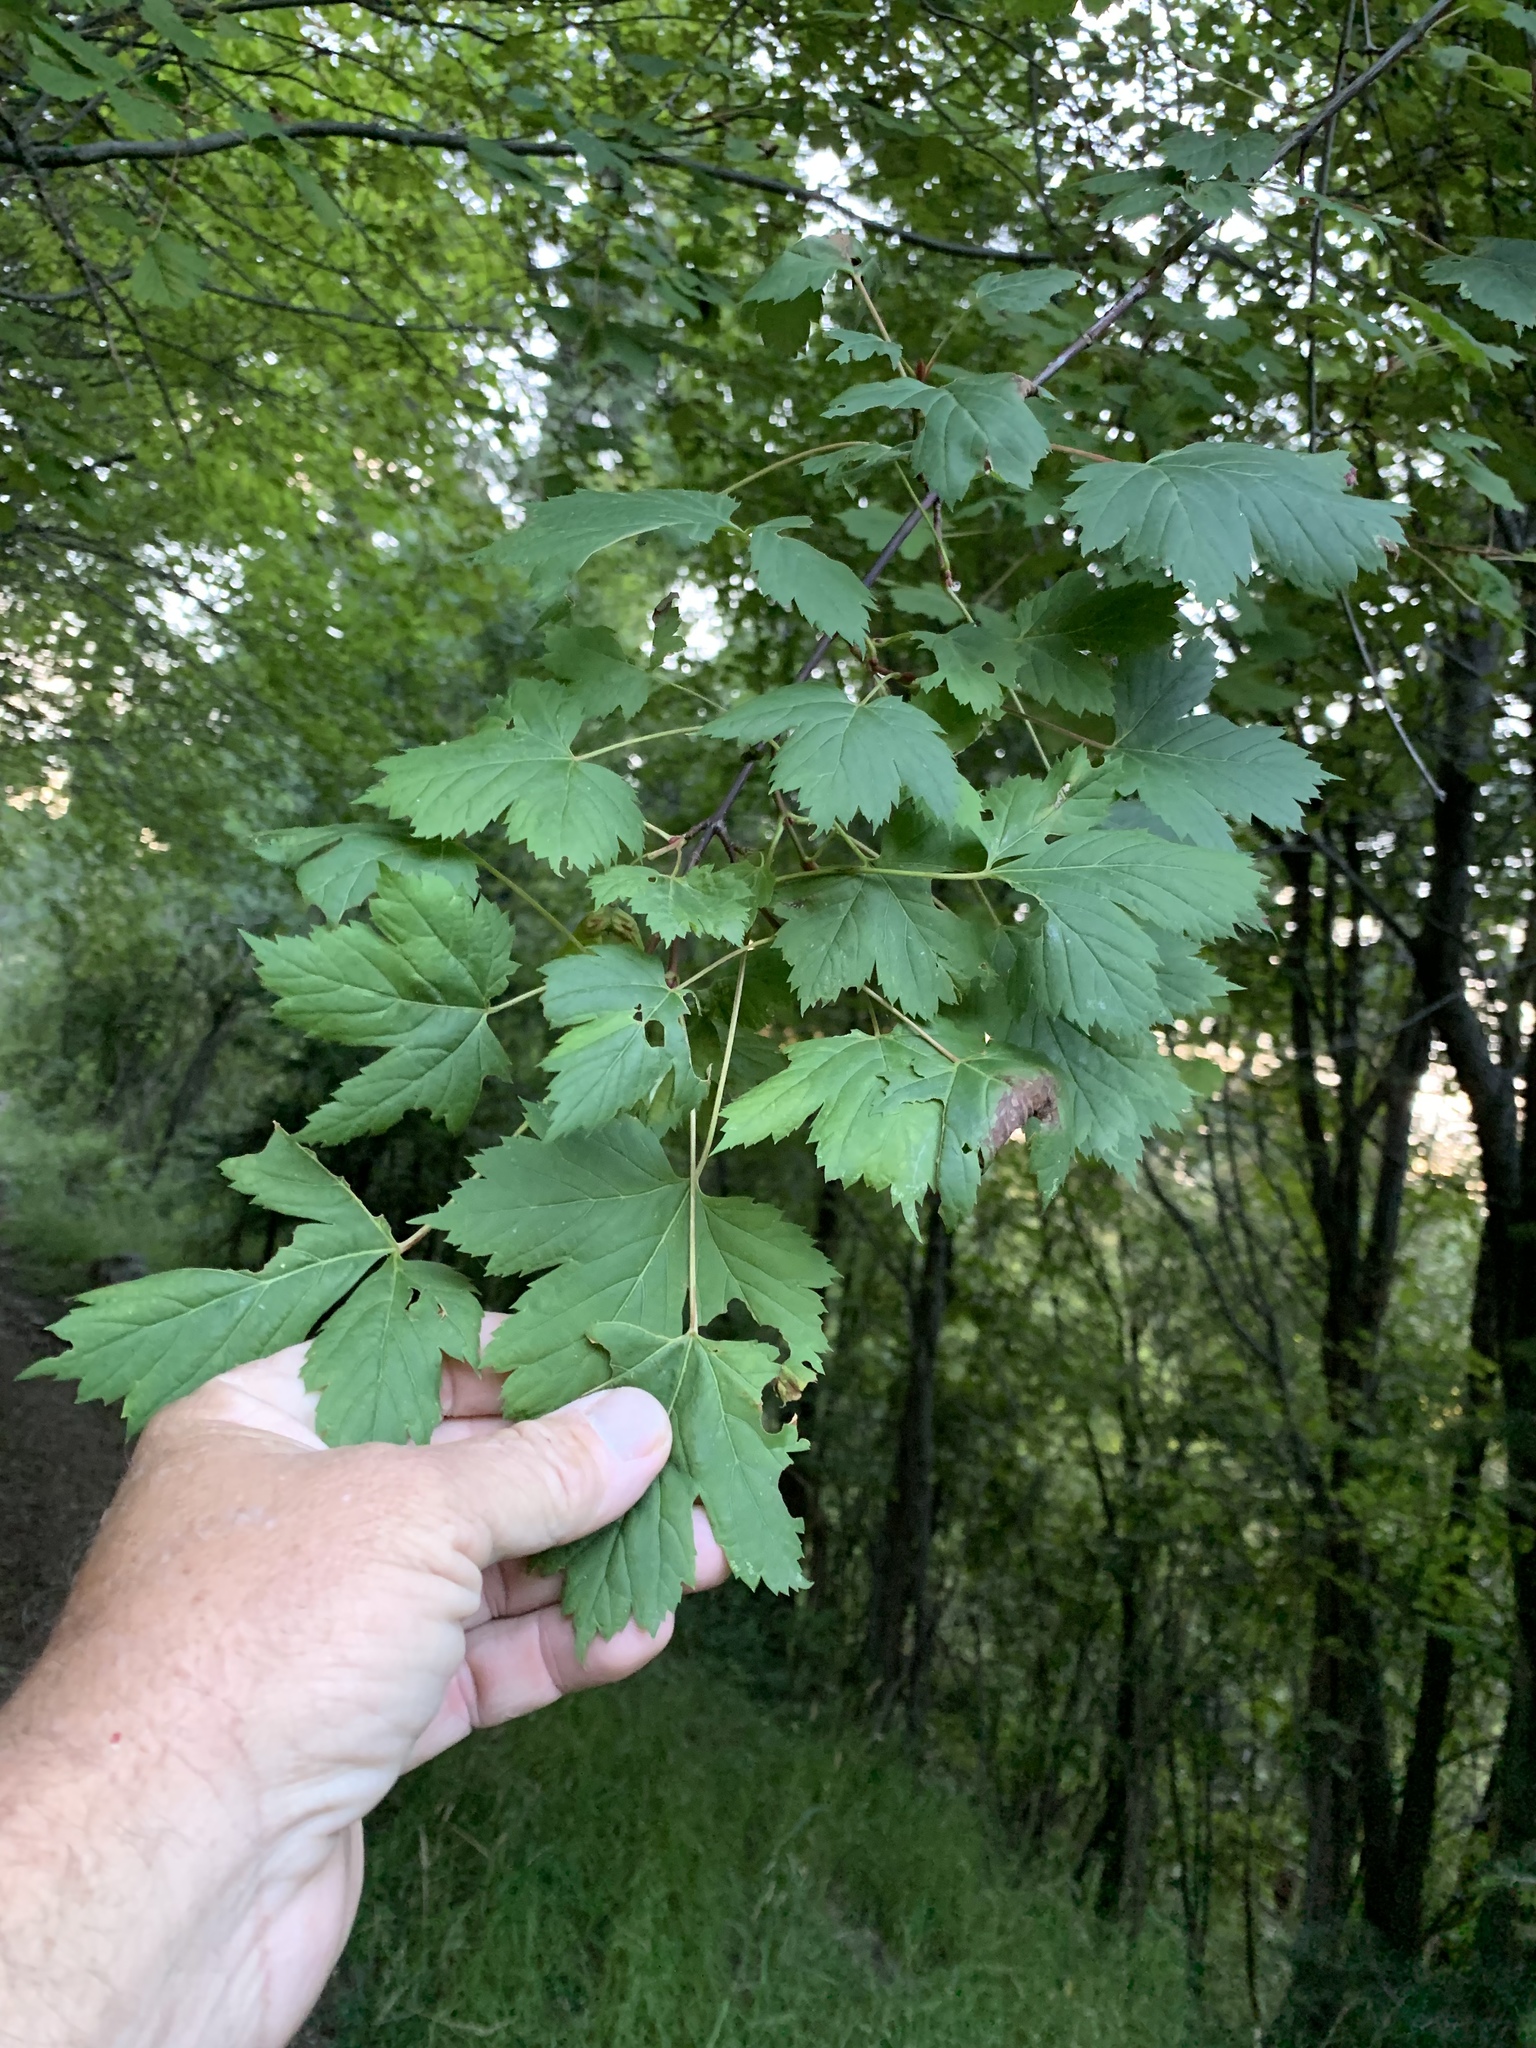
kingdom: Plantae
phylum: Tracheophyta
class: Magnoliopsida
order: Sapindales
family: Sapindaceae
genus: Acer
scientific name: Acer glabrum
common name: Rocky mountain maple
